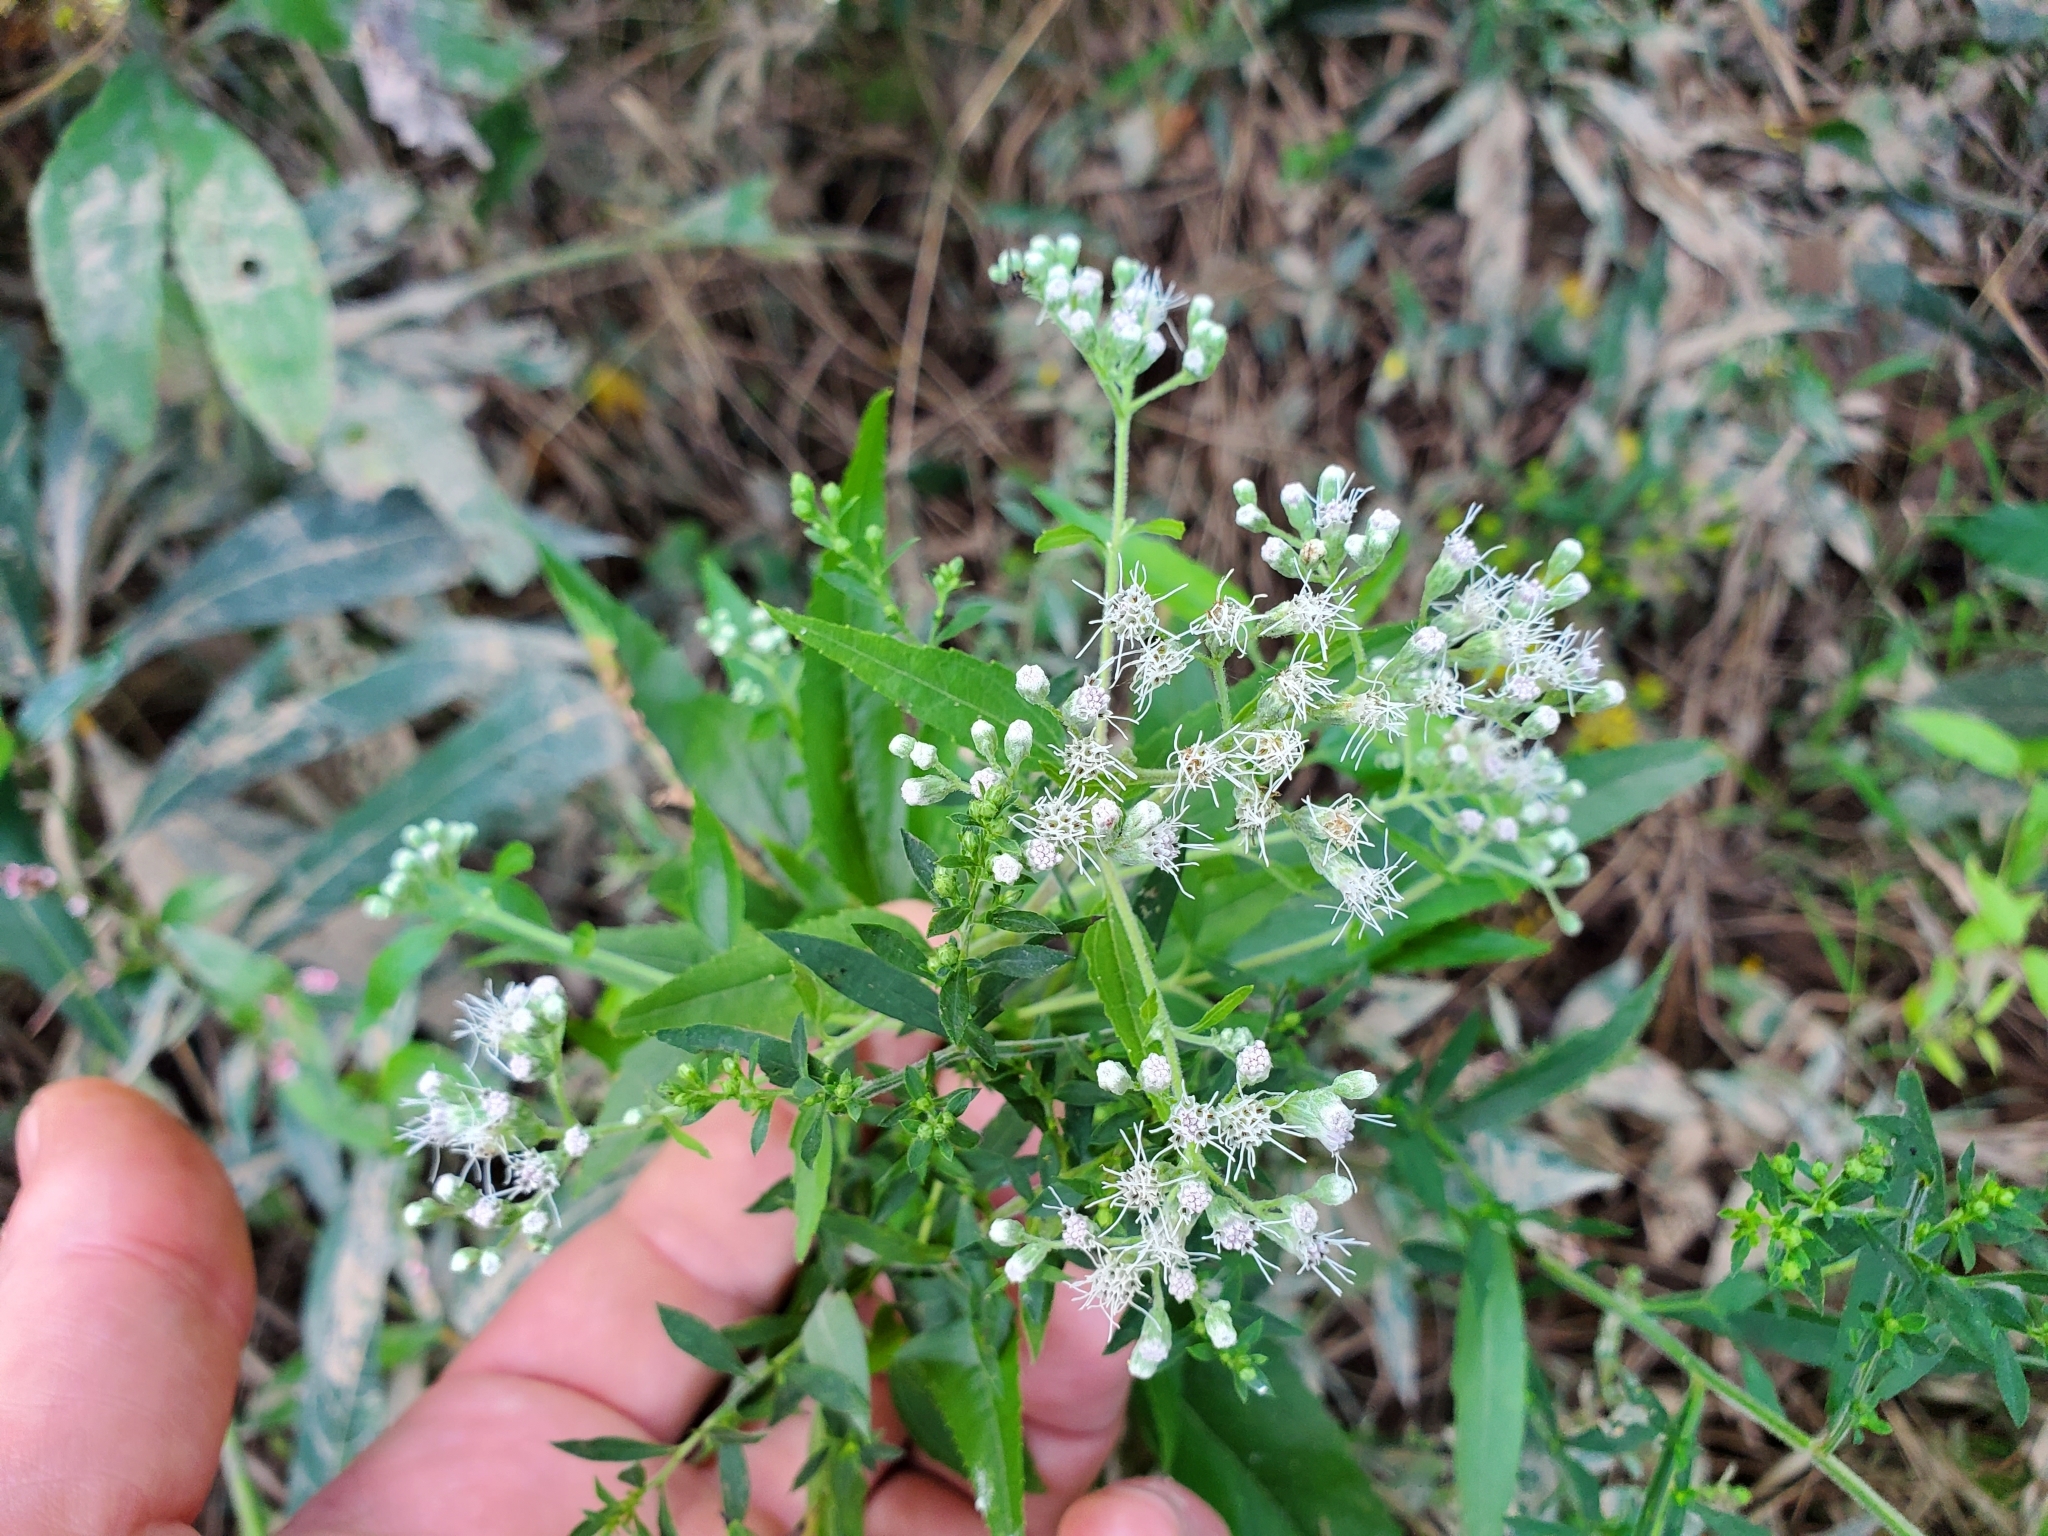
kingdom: Plantae
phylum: Tracheophyta
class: Magnoliopsida
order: Asterales
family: Asteraceae
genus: Eupatorium
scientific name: Eupatorium serotinum
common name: Late boneset
